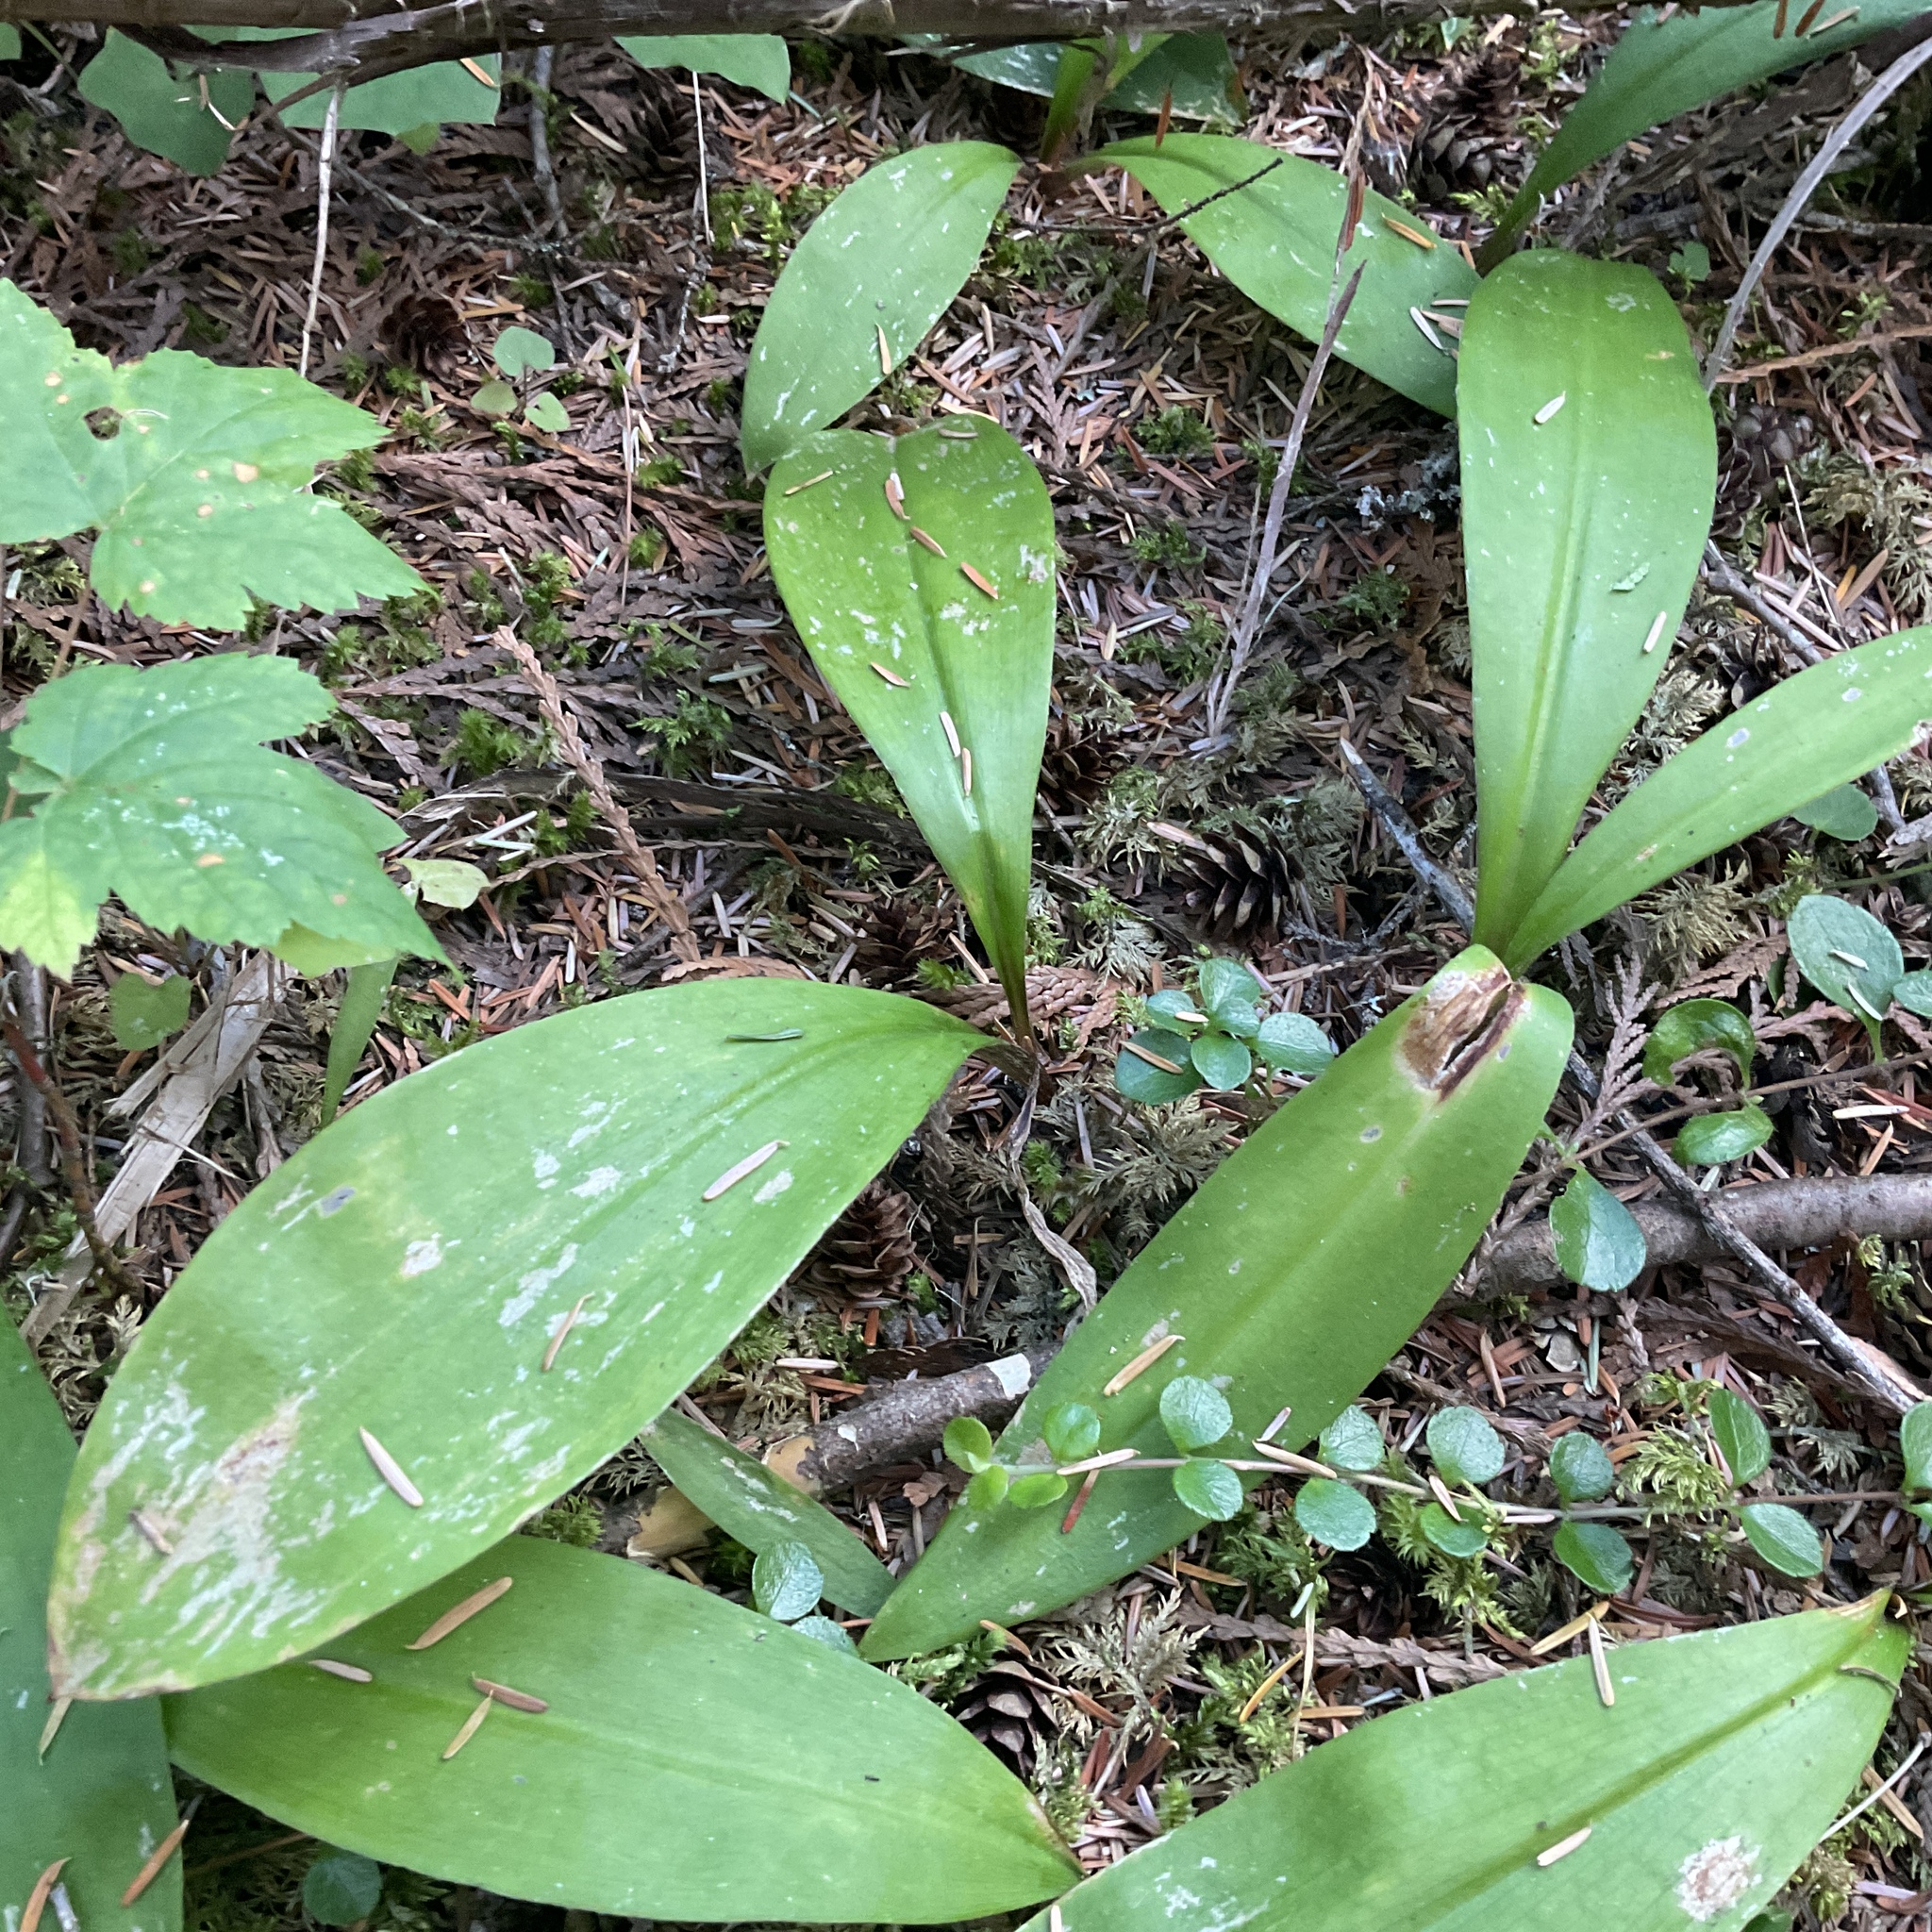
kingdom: Plantae
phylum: Tracheophyta
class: Liliopsida
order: Liliales
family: Liliaceae
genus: Clintonia
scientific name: Clintonia uniflora
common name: Queen's cup
